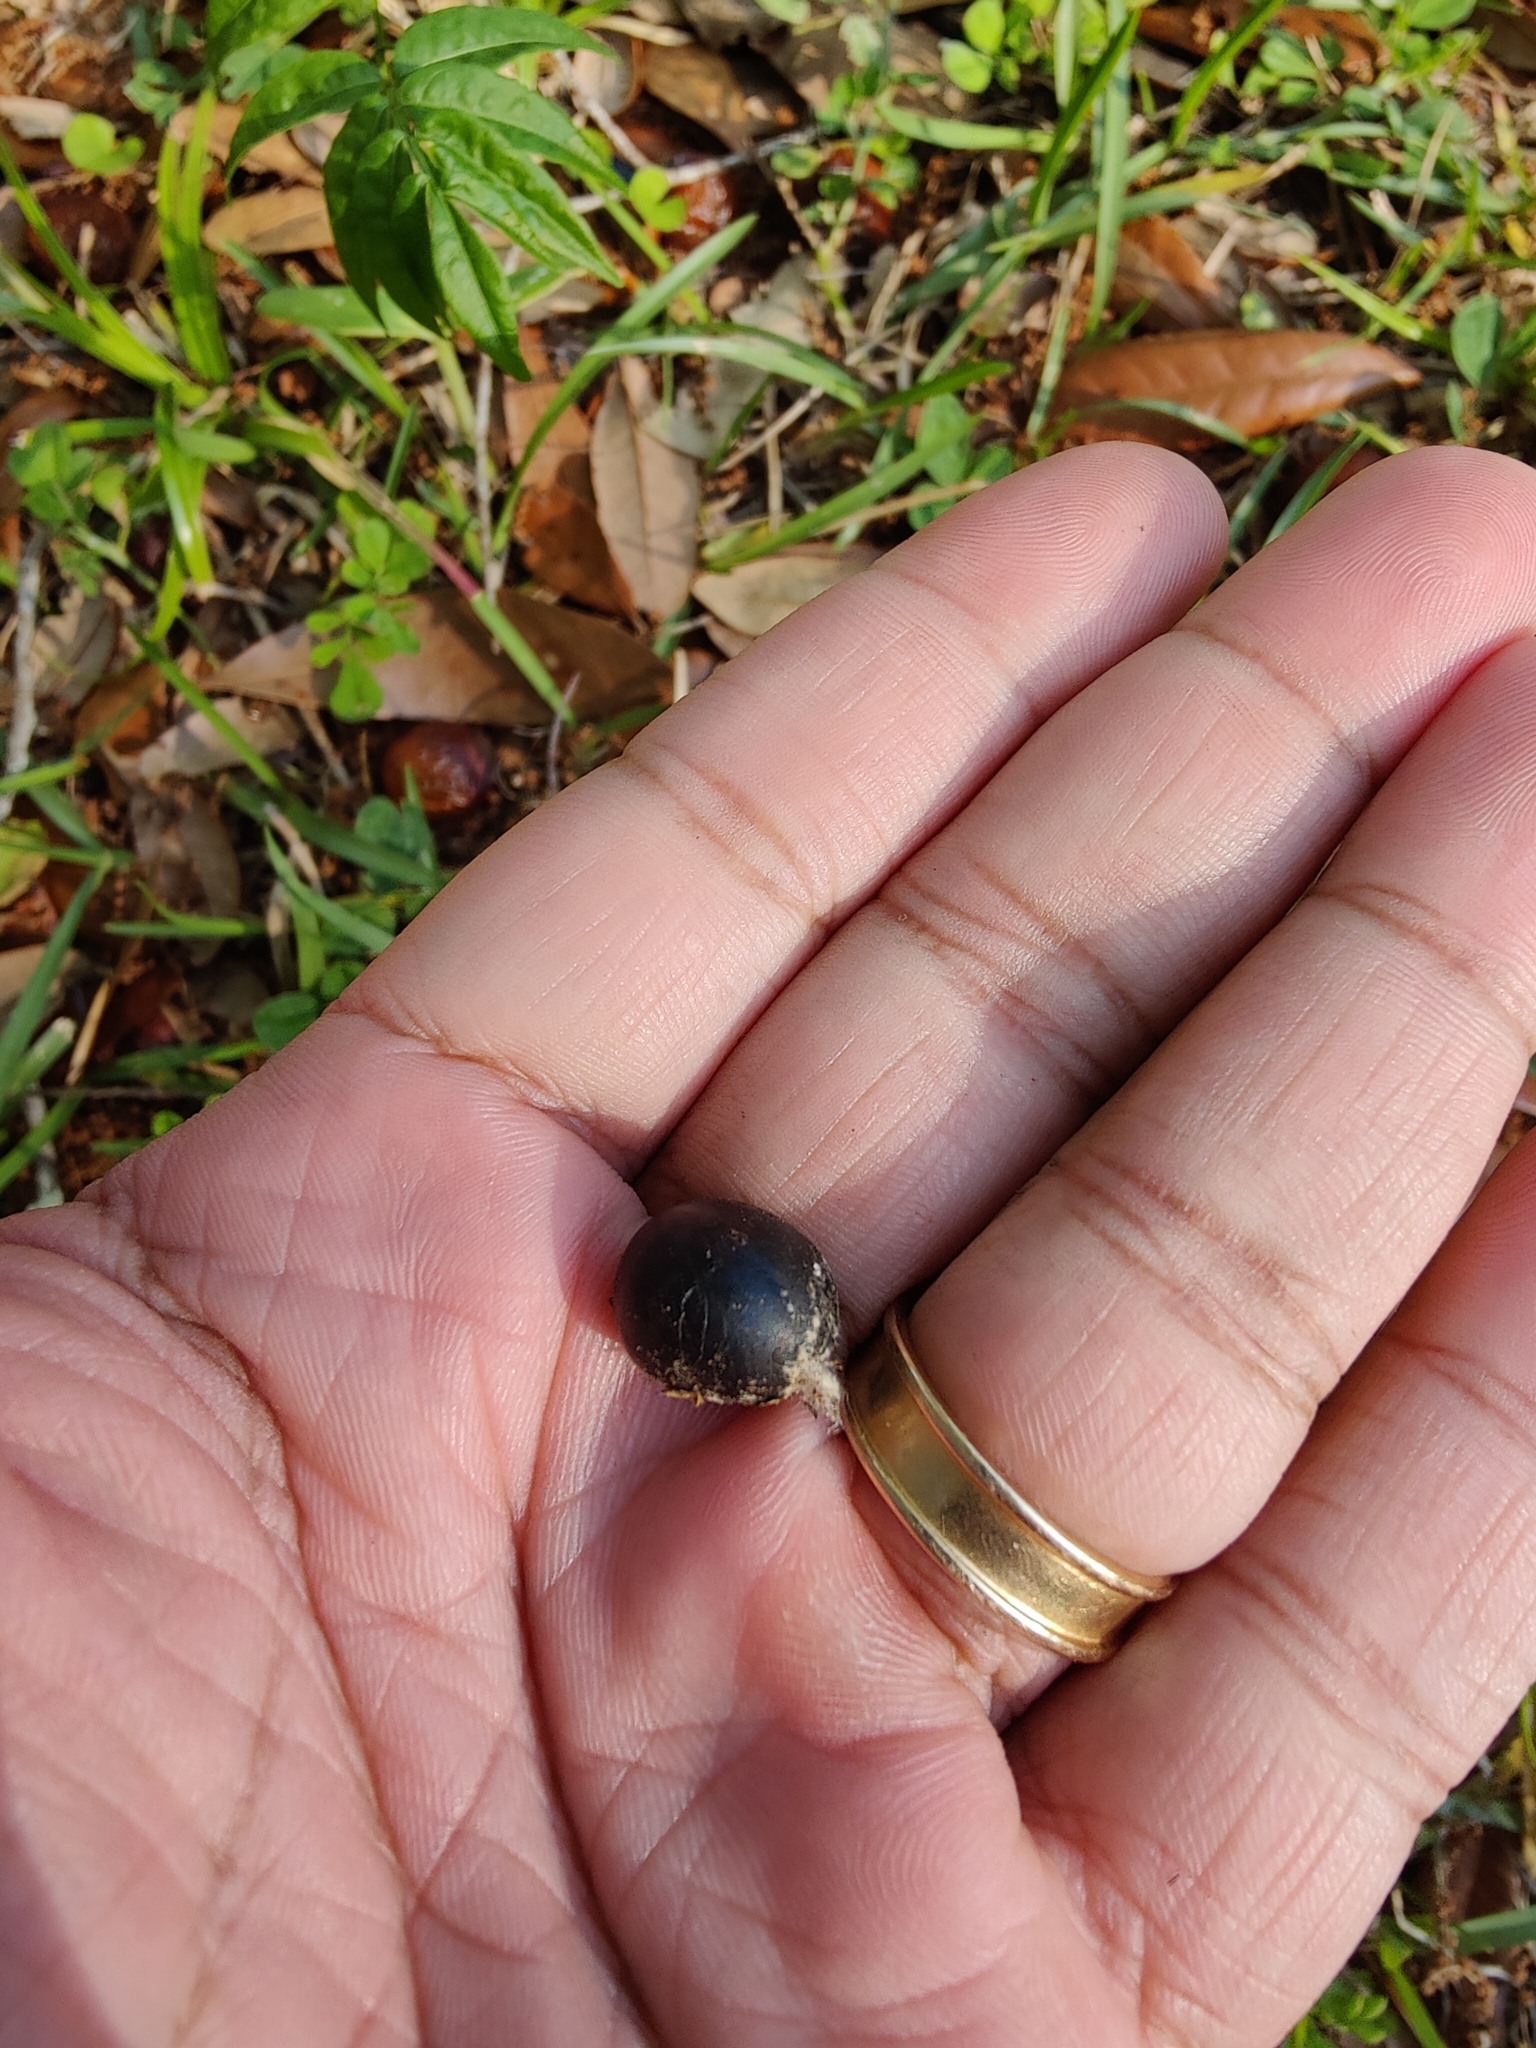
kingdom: Plantae
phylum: Tracheophyta
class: Magnoliopsida
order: Sapindales
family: Sapindaceae
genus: Sapindus
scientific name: Sapindus saponaria
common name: Wingleaf soapberry
